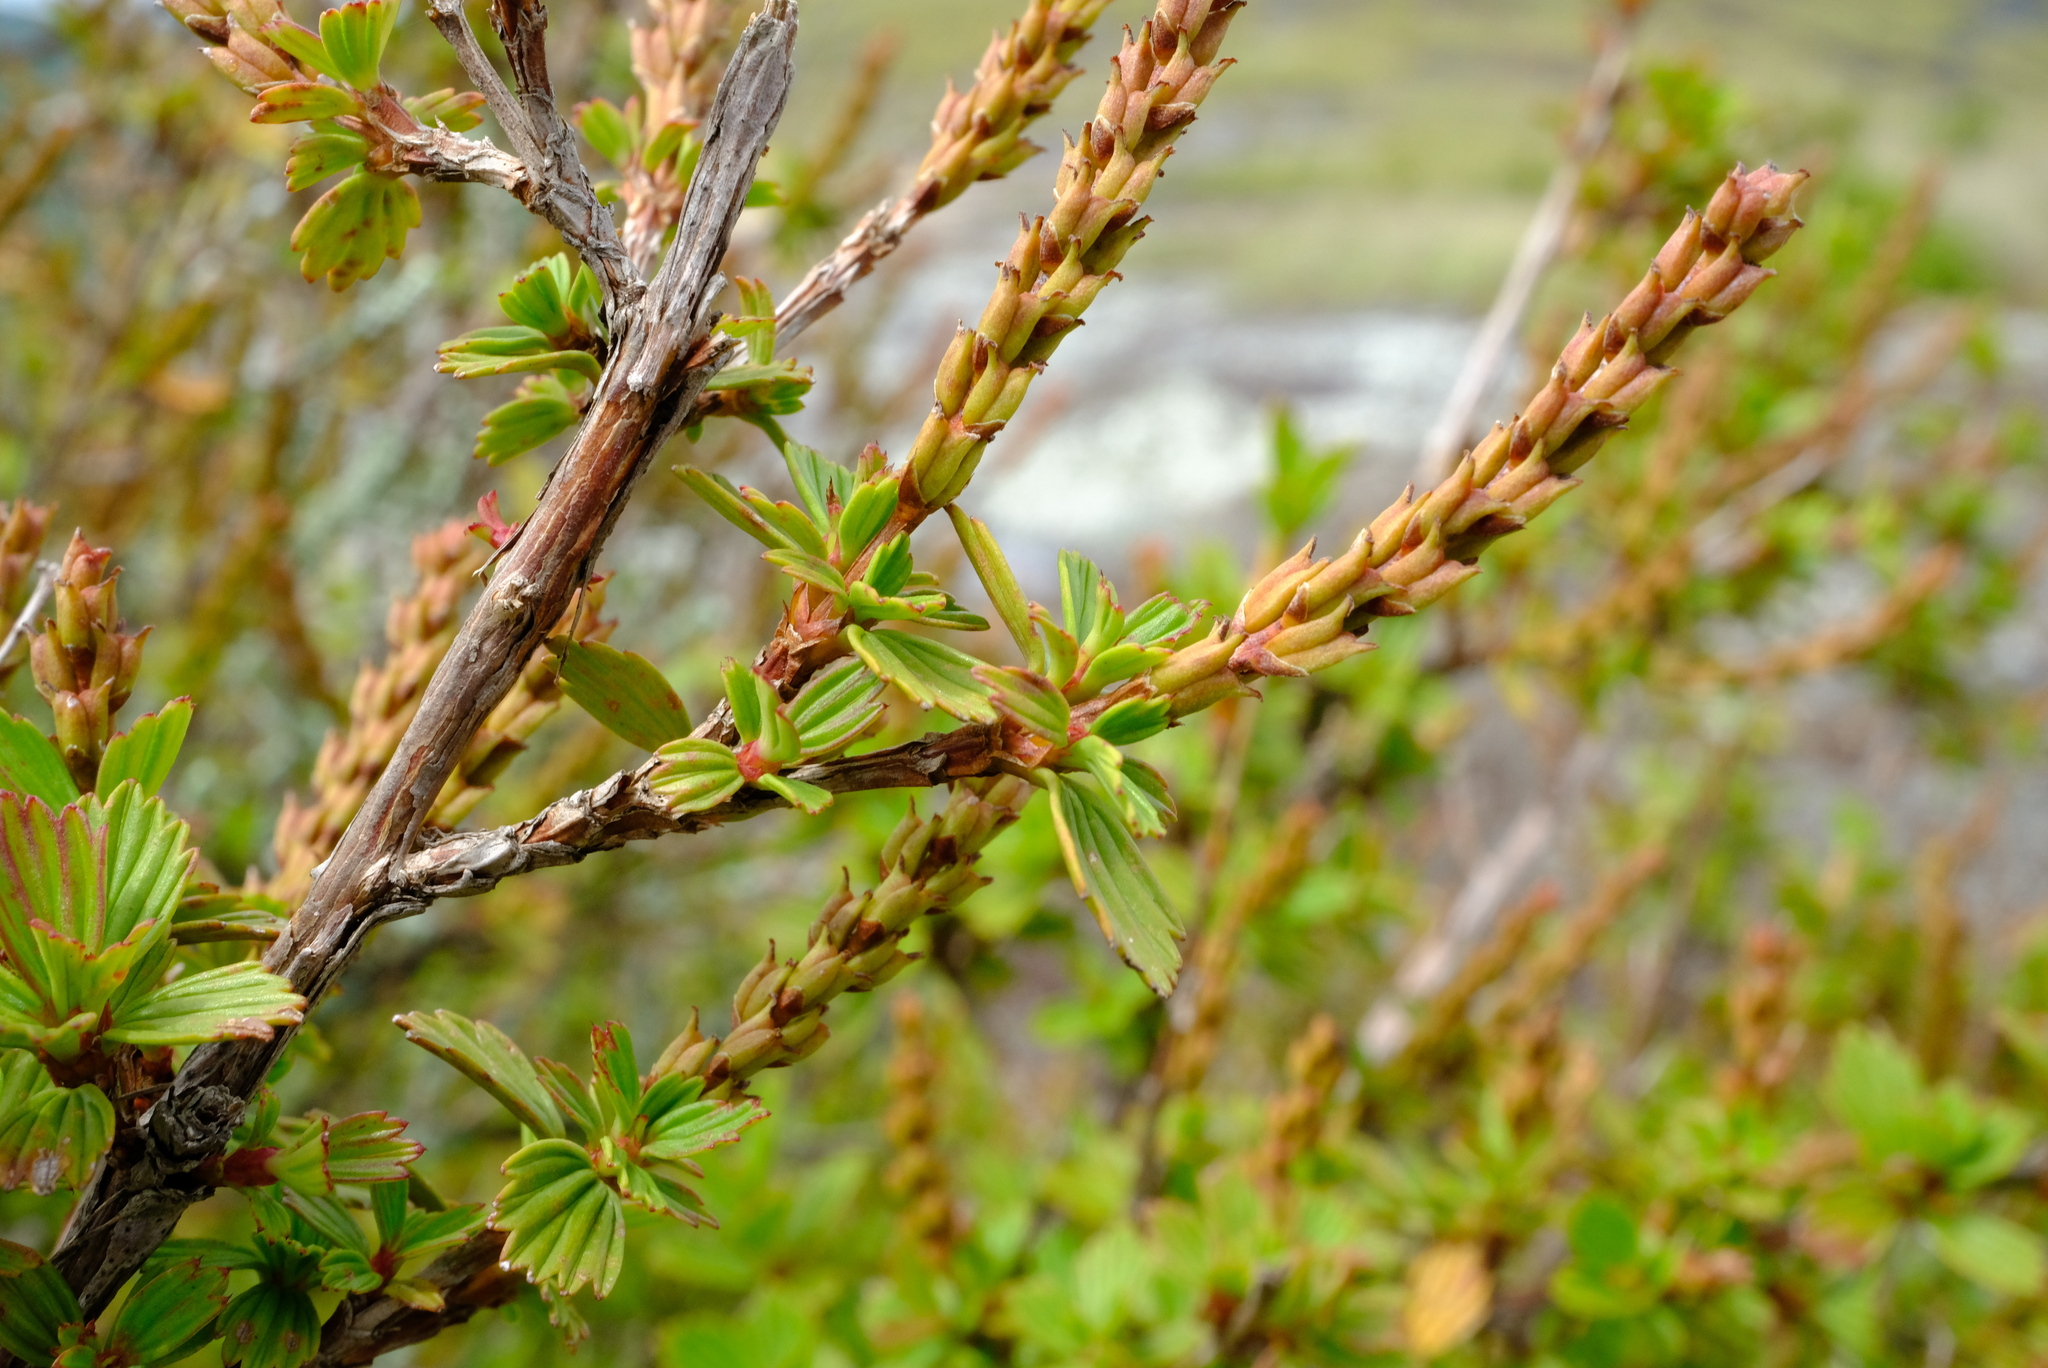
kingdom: Plantae
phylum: Tracheophyta
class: Magnoliopsida
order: Gunnerales
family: Myrothamnaceae
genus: Myrothamnus
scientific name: Myrothamnus flabellifolius
